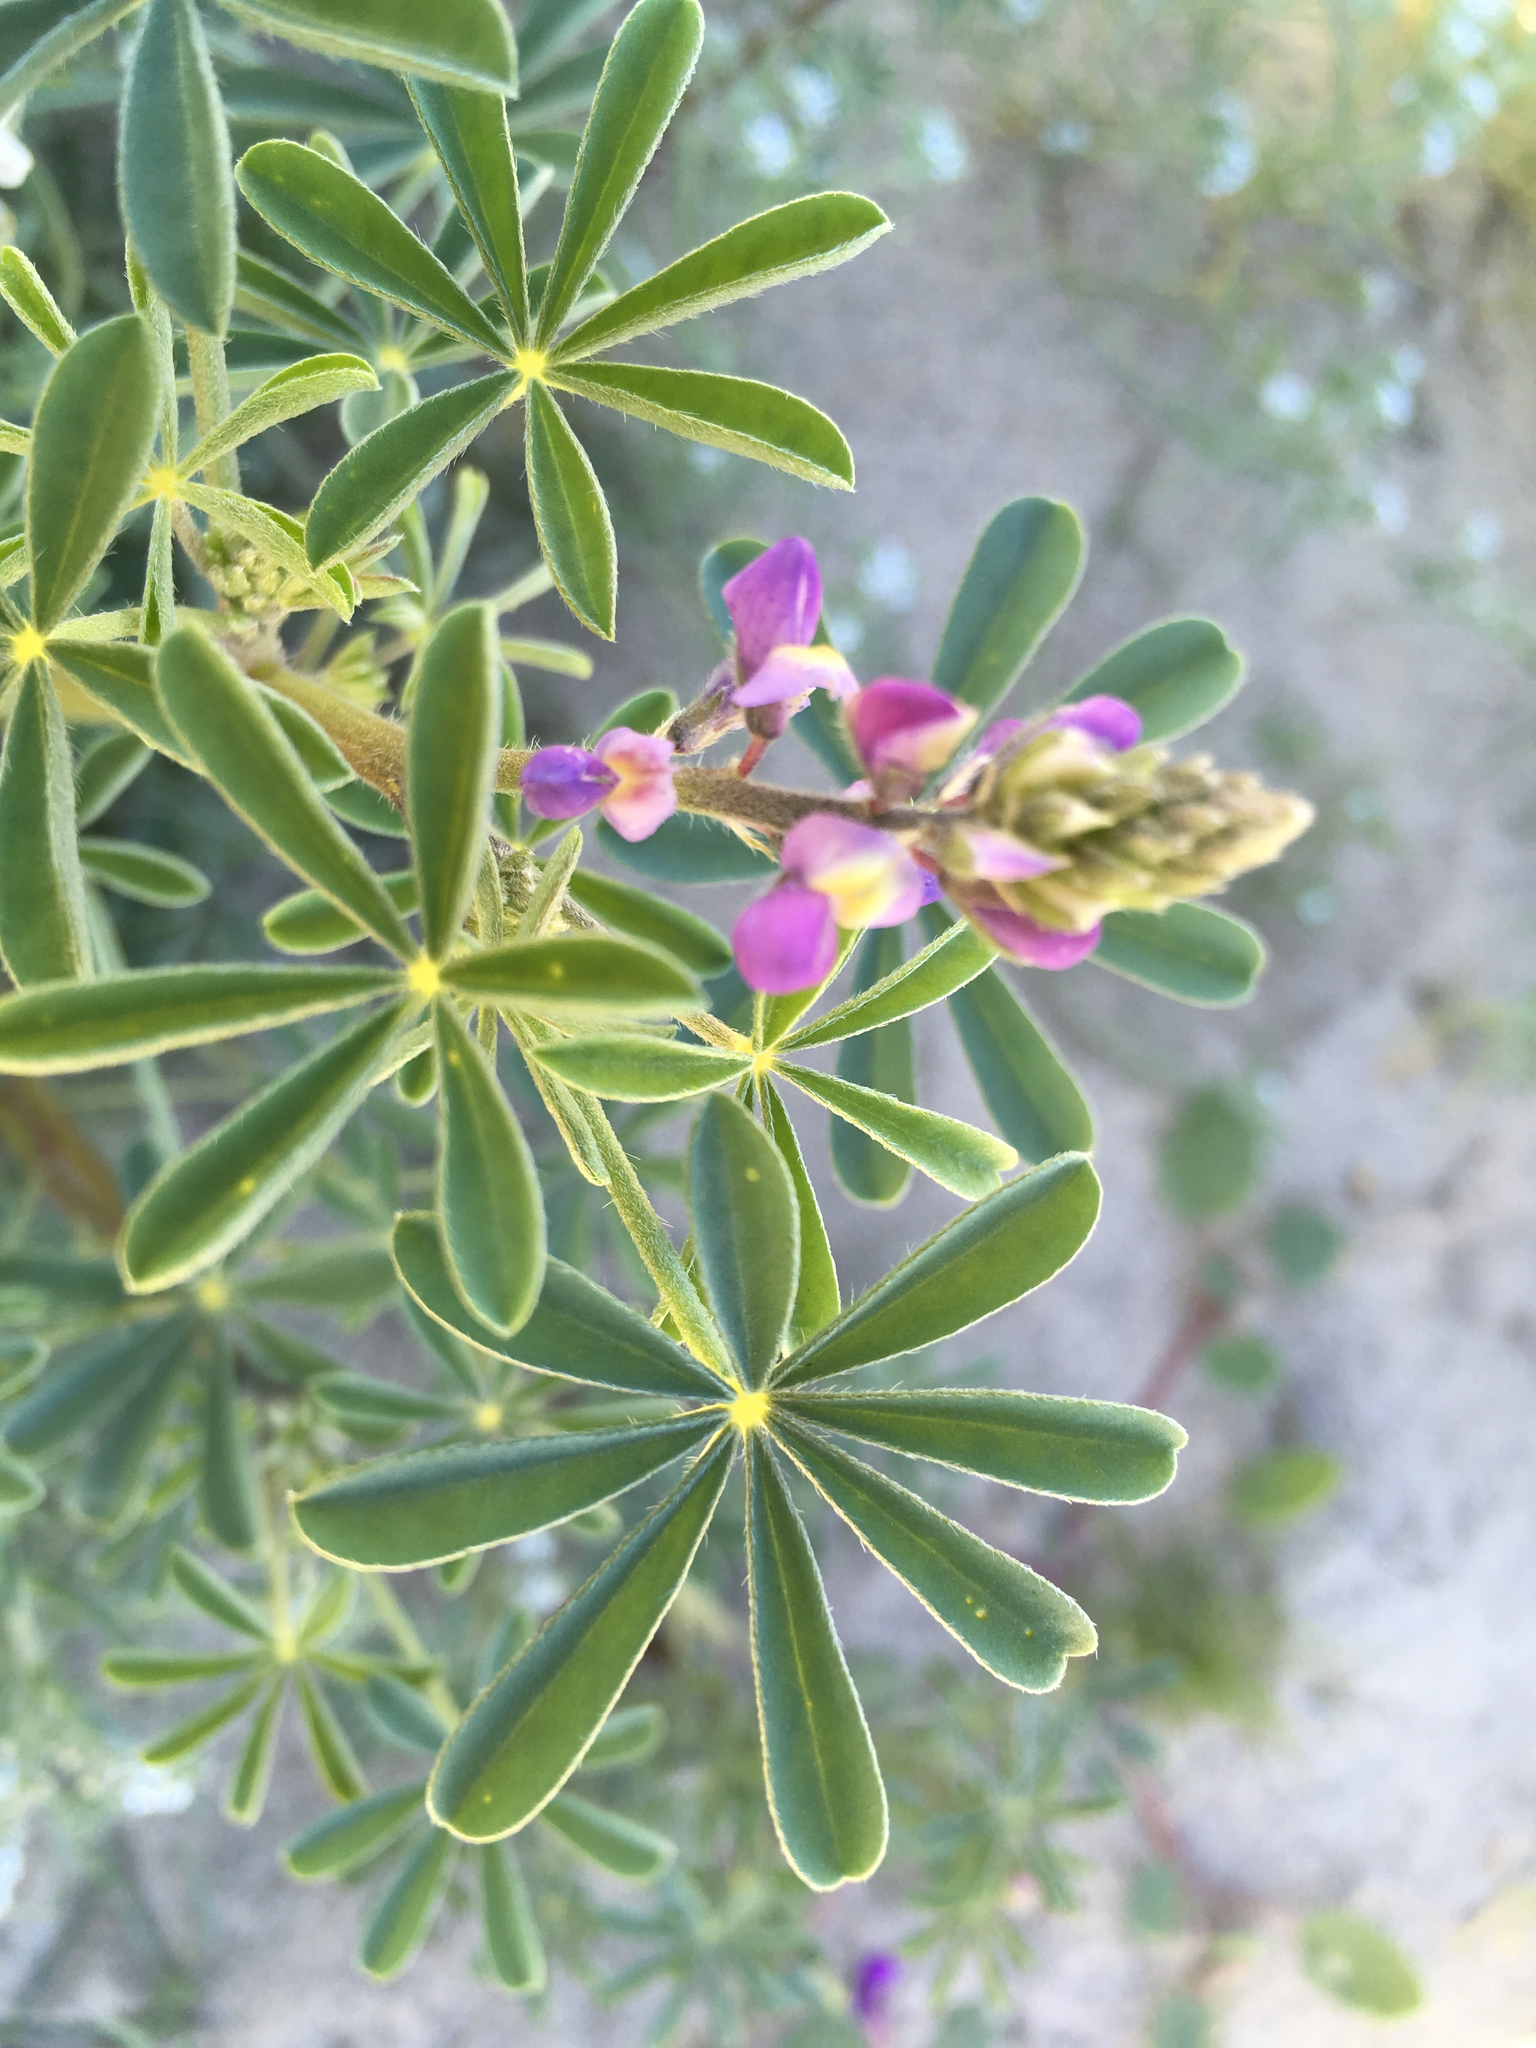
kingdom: Plantae
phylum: Tracheophyta
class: Magnoliopsida
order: Fabales
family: Fabaceae
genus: Lupinus
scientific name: Lupinus arizonicus
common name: Arizona lupine
